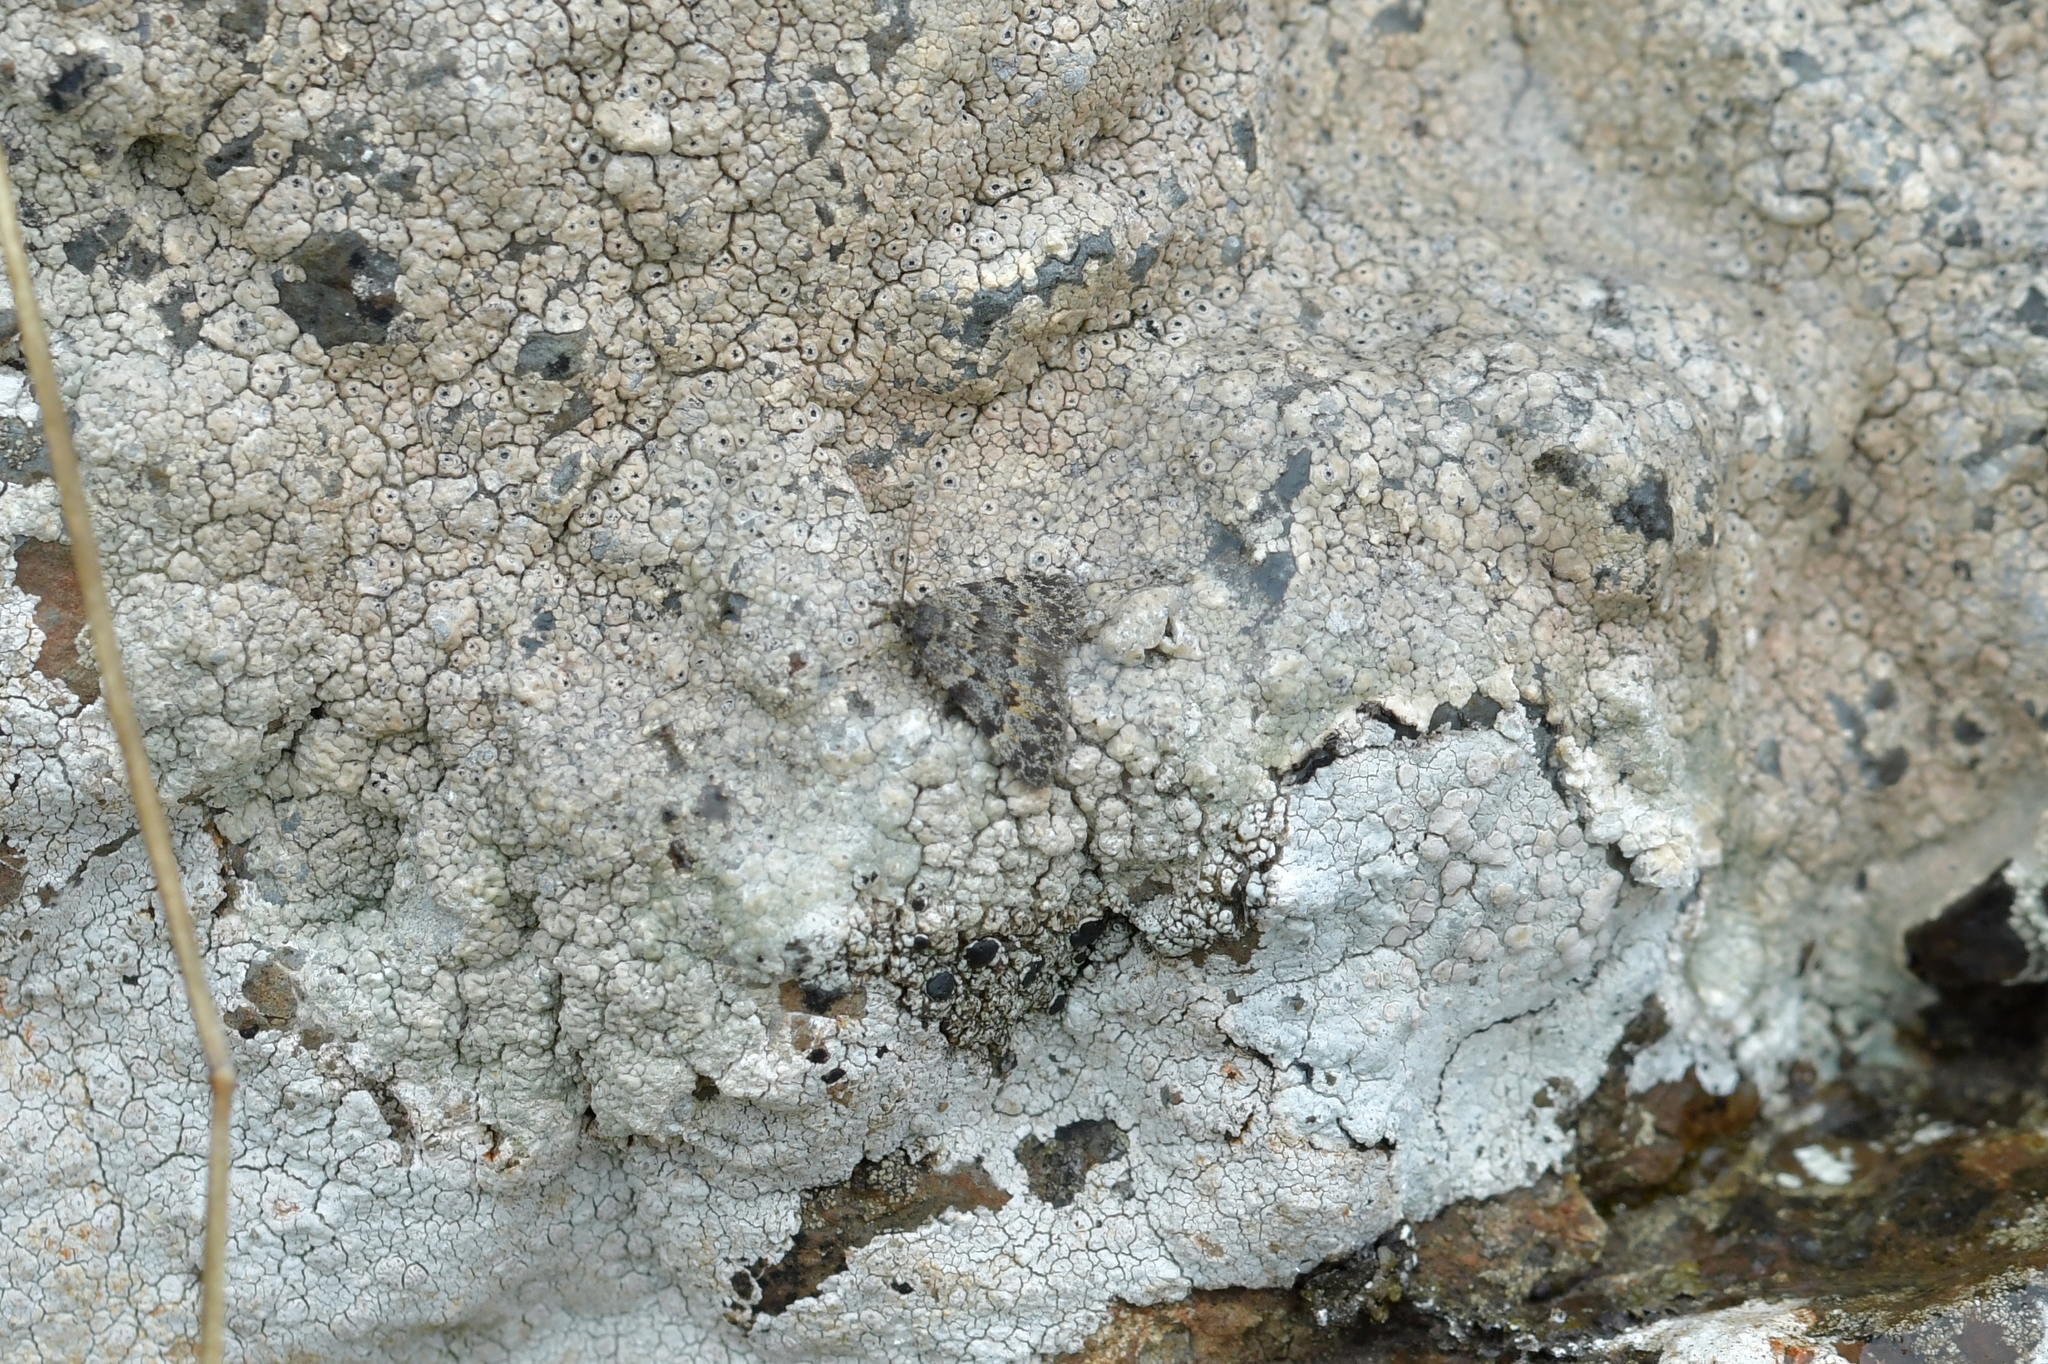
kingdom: Animalia
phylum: Arthropoda
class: Insecta
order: Lepidoptera
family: Geometridae
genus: Dichromodes
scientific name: Dichromodes cynica
